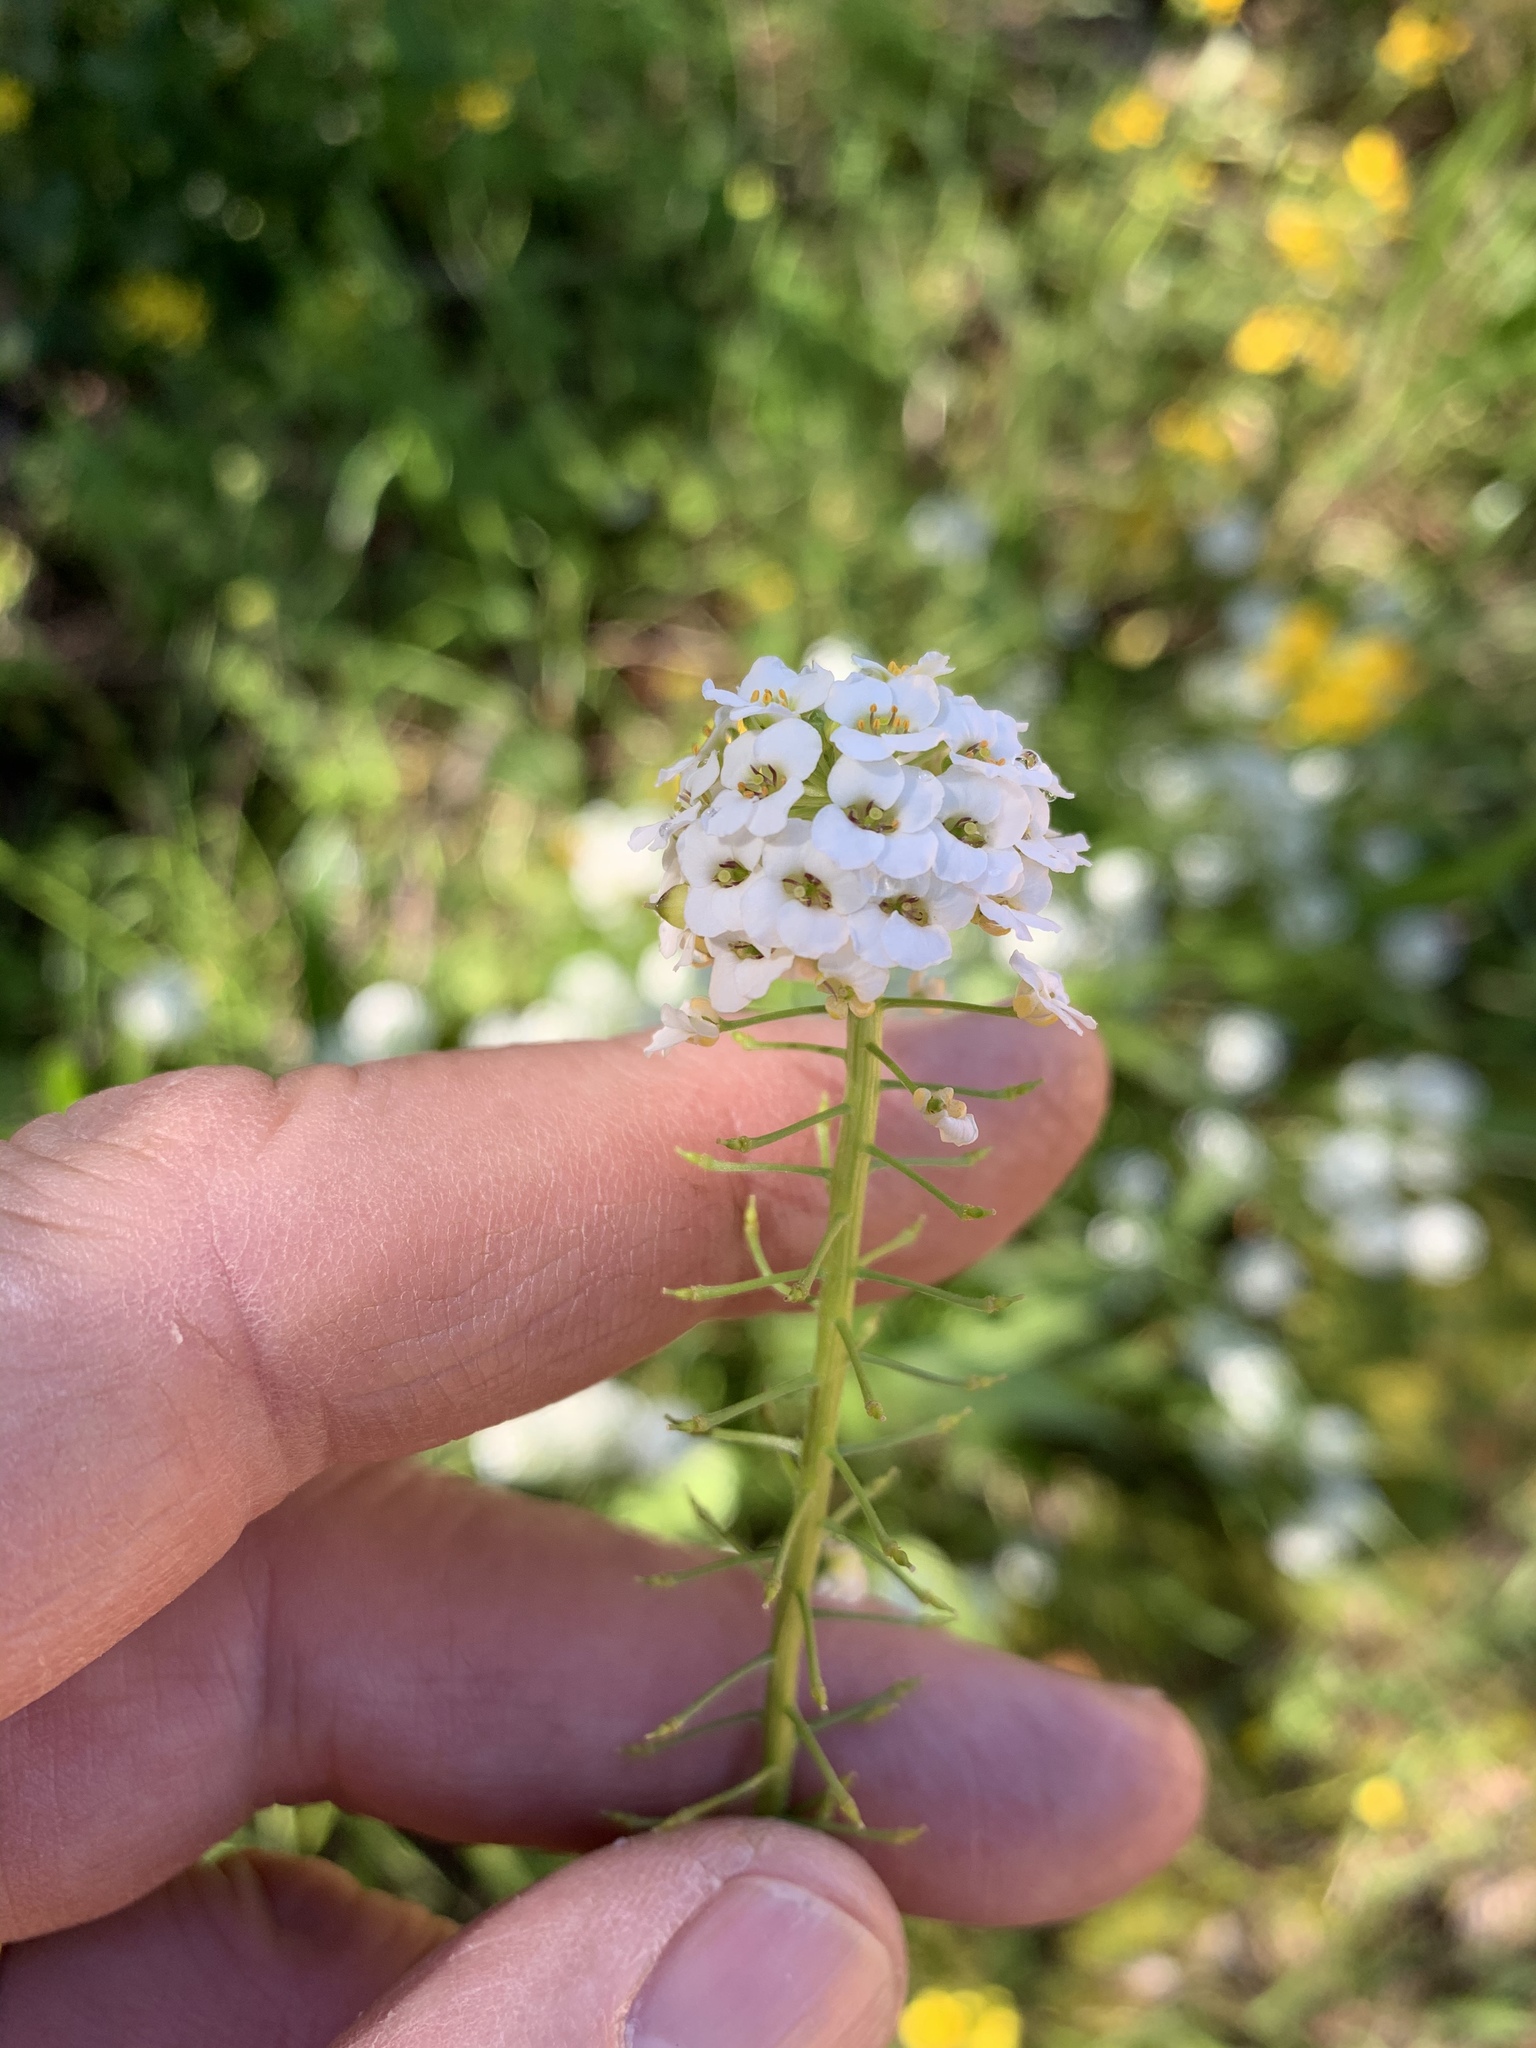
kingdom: Plantae
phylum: Tracheophyta
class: Magnoliopsida
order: Brassicales
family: Brassicaceae
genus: Lobularia
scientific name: Lobularia maritima
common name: Sweet alison
